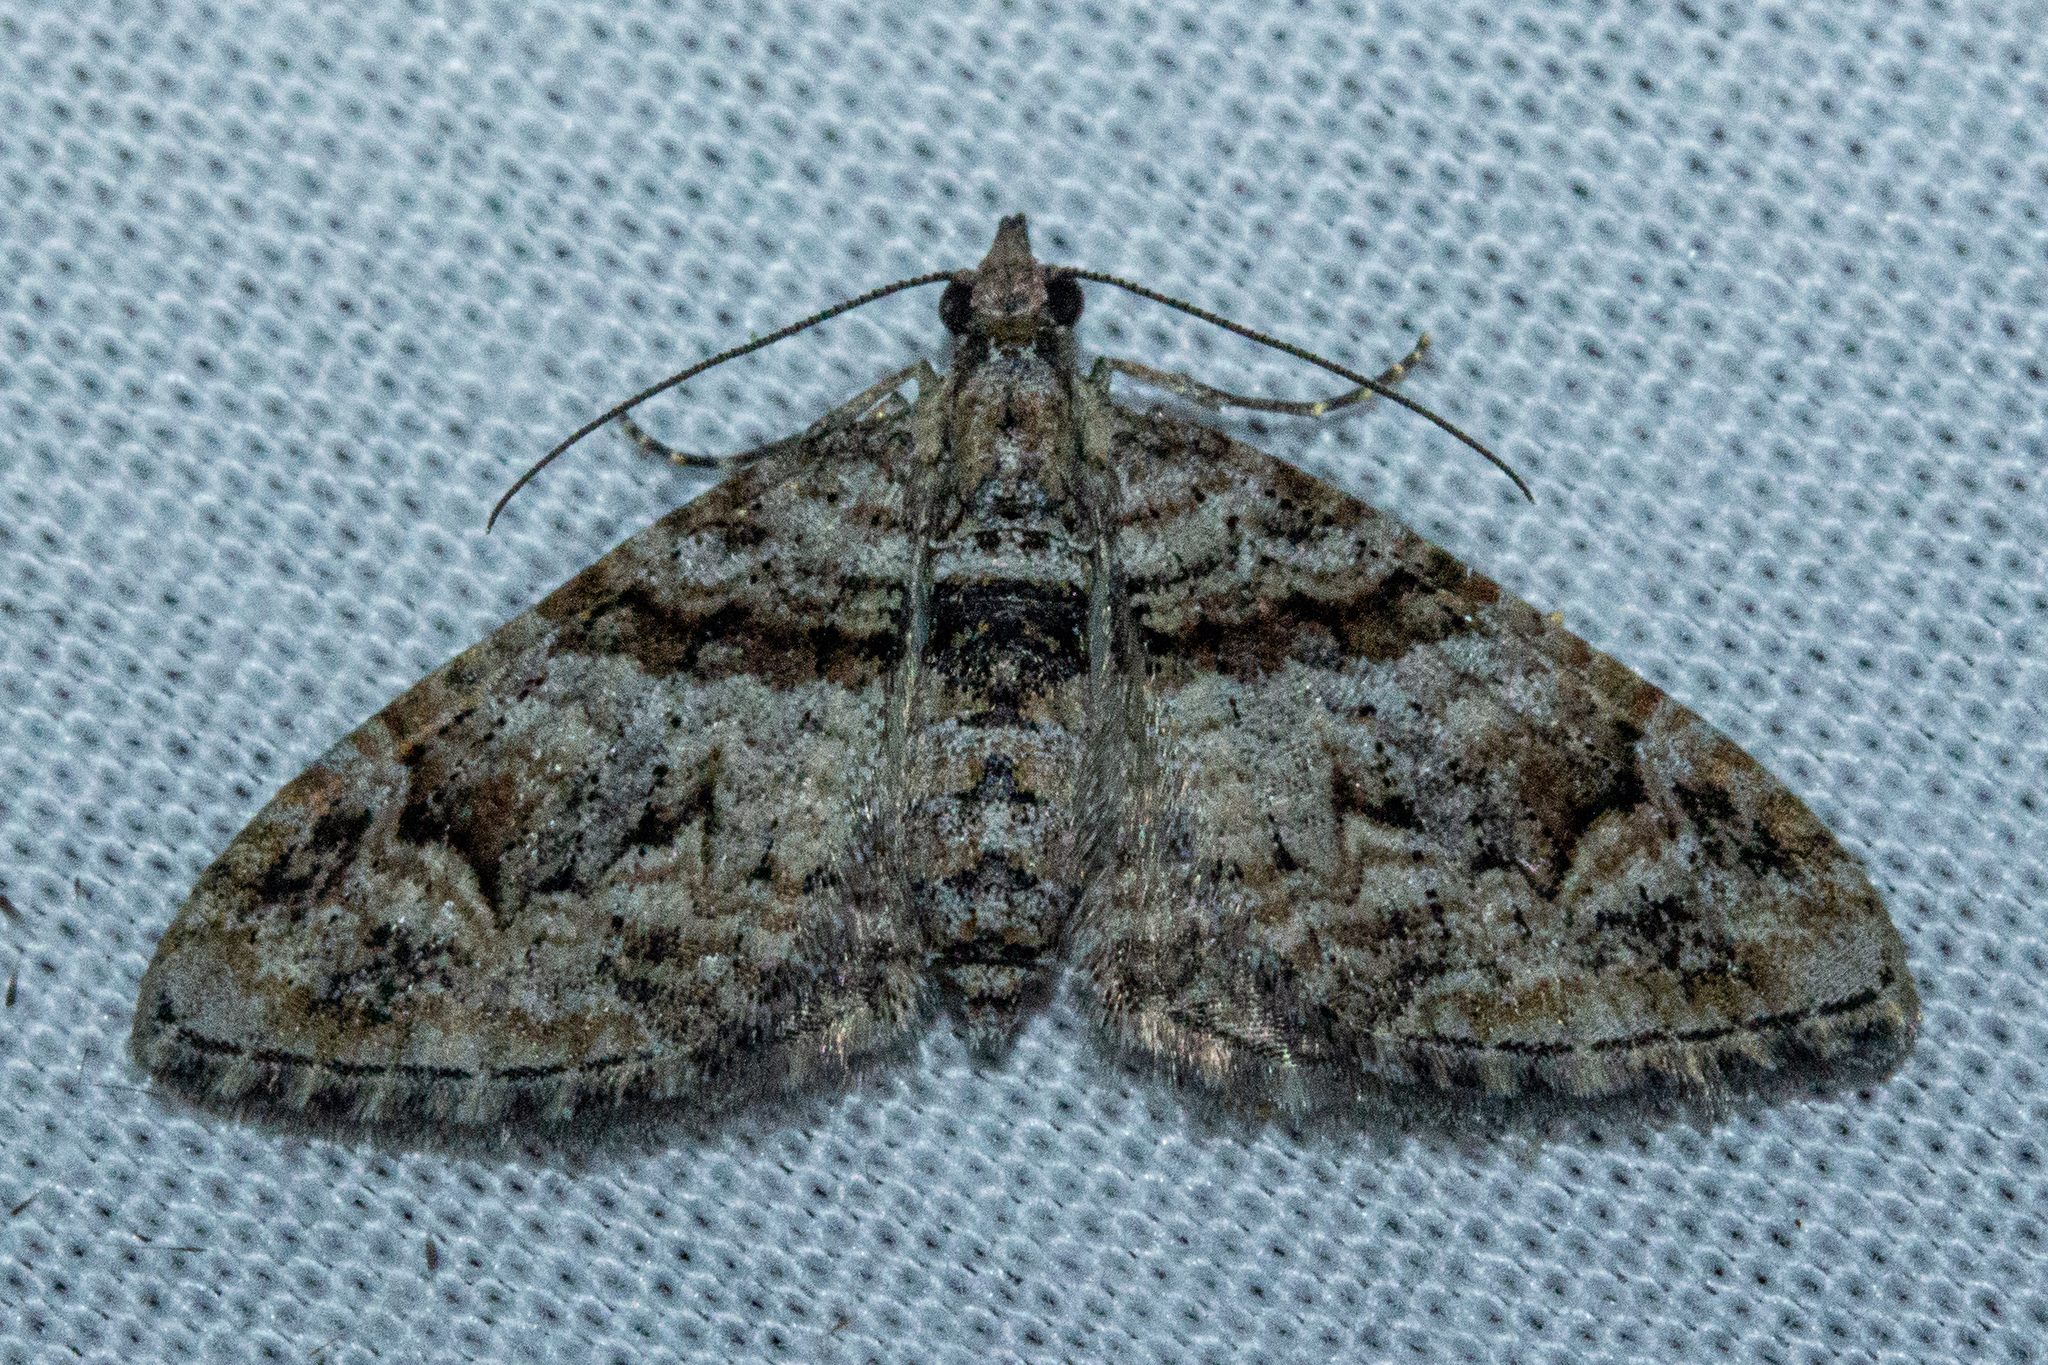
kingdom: Animalia
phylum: Arthropoda
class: Insecta
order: Lepidoptera
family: Geometridae
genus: Phrissogonus
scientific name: Phrissogonus laticostata
